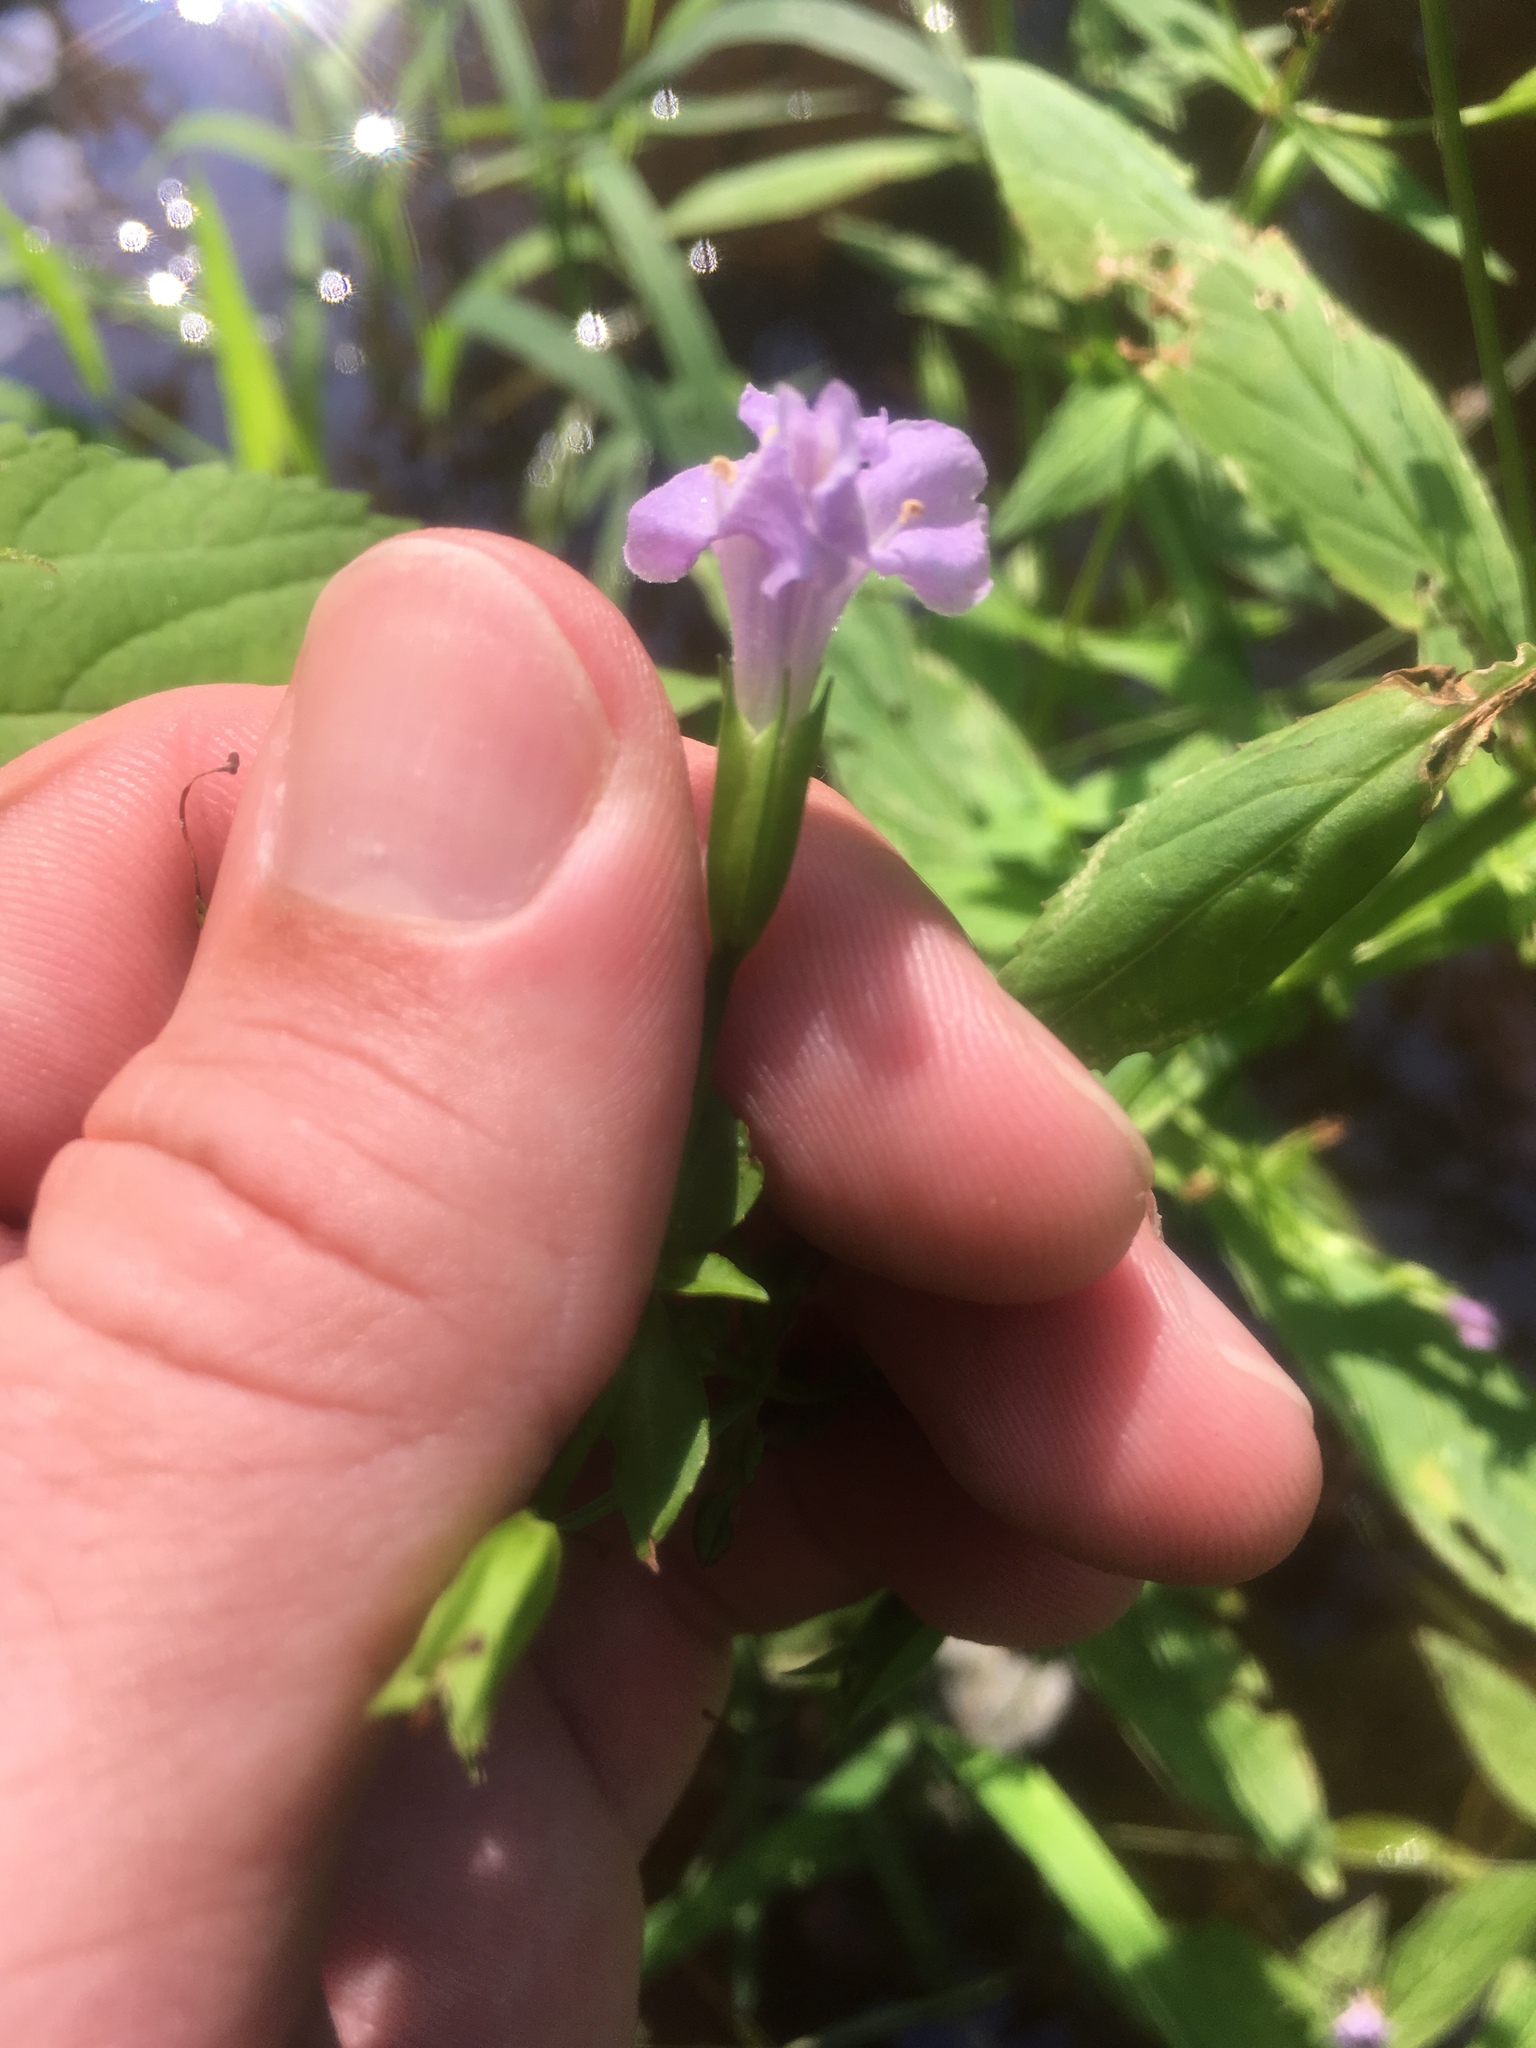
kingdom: Plantae
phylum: Tracheophyta
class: Magnoliopsida
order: Lamiales
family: Phrymaceae
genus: Mimulus
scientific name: Mimulus ringens
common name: Allegheny monkeyflower
